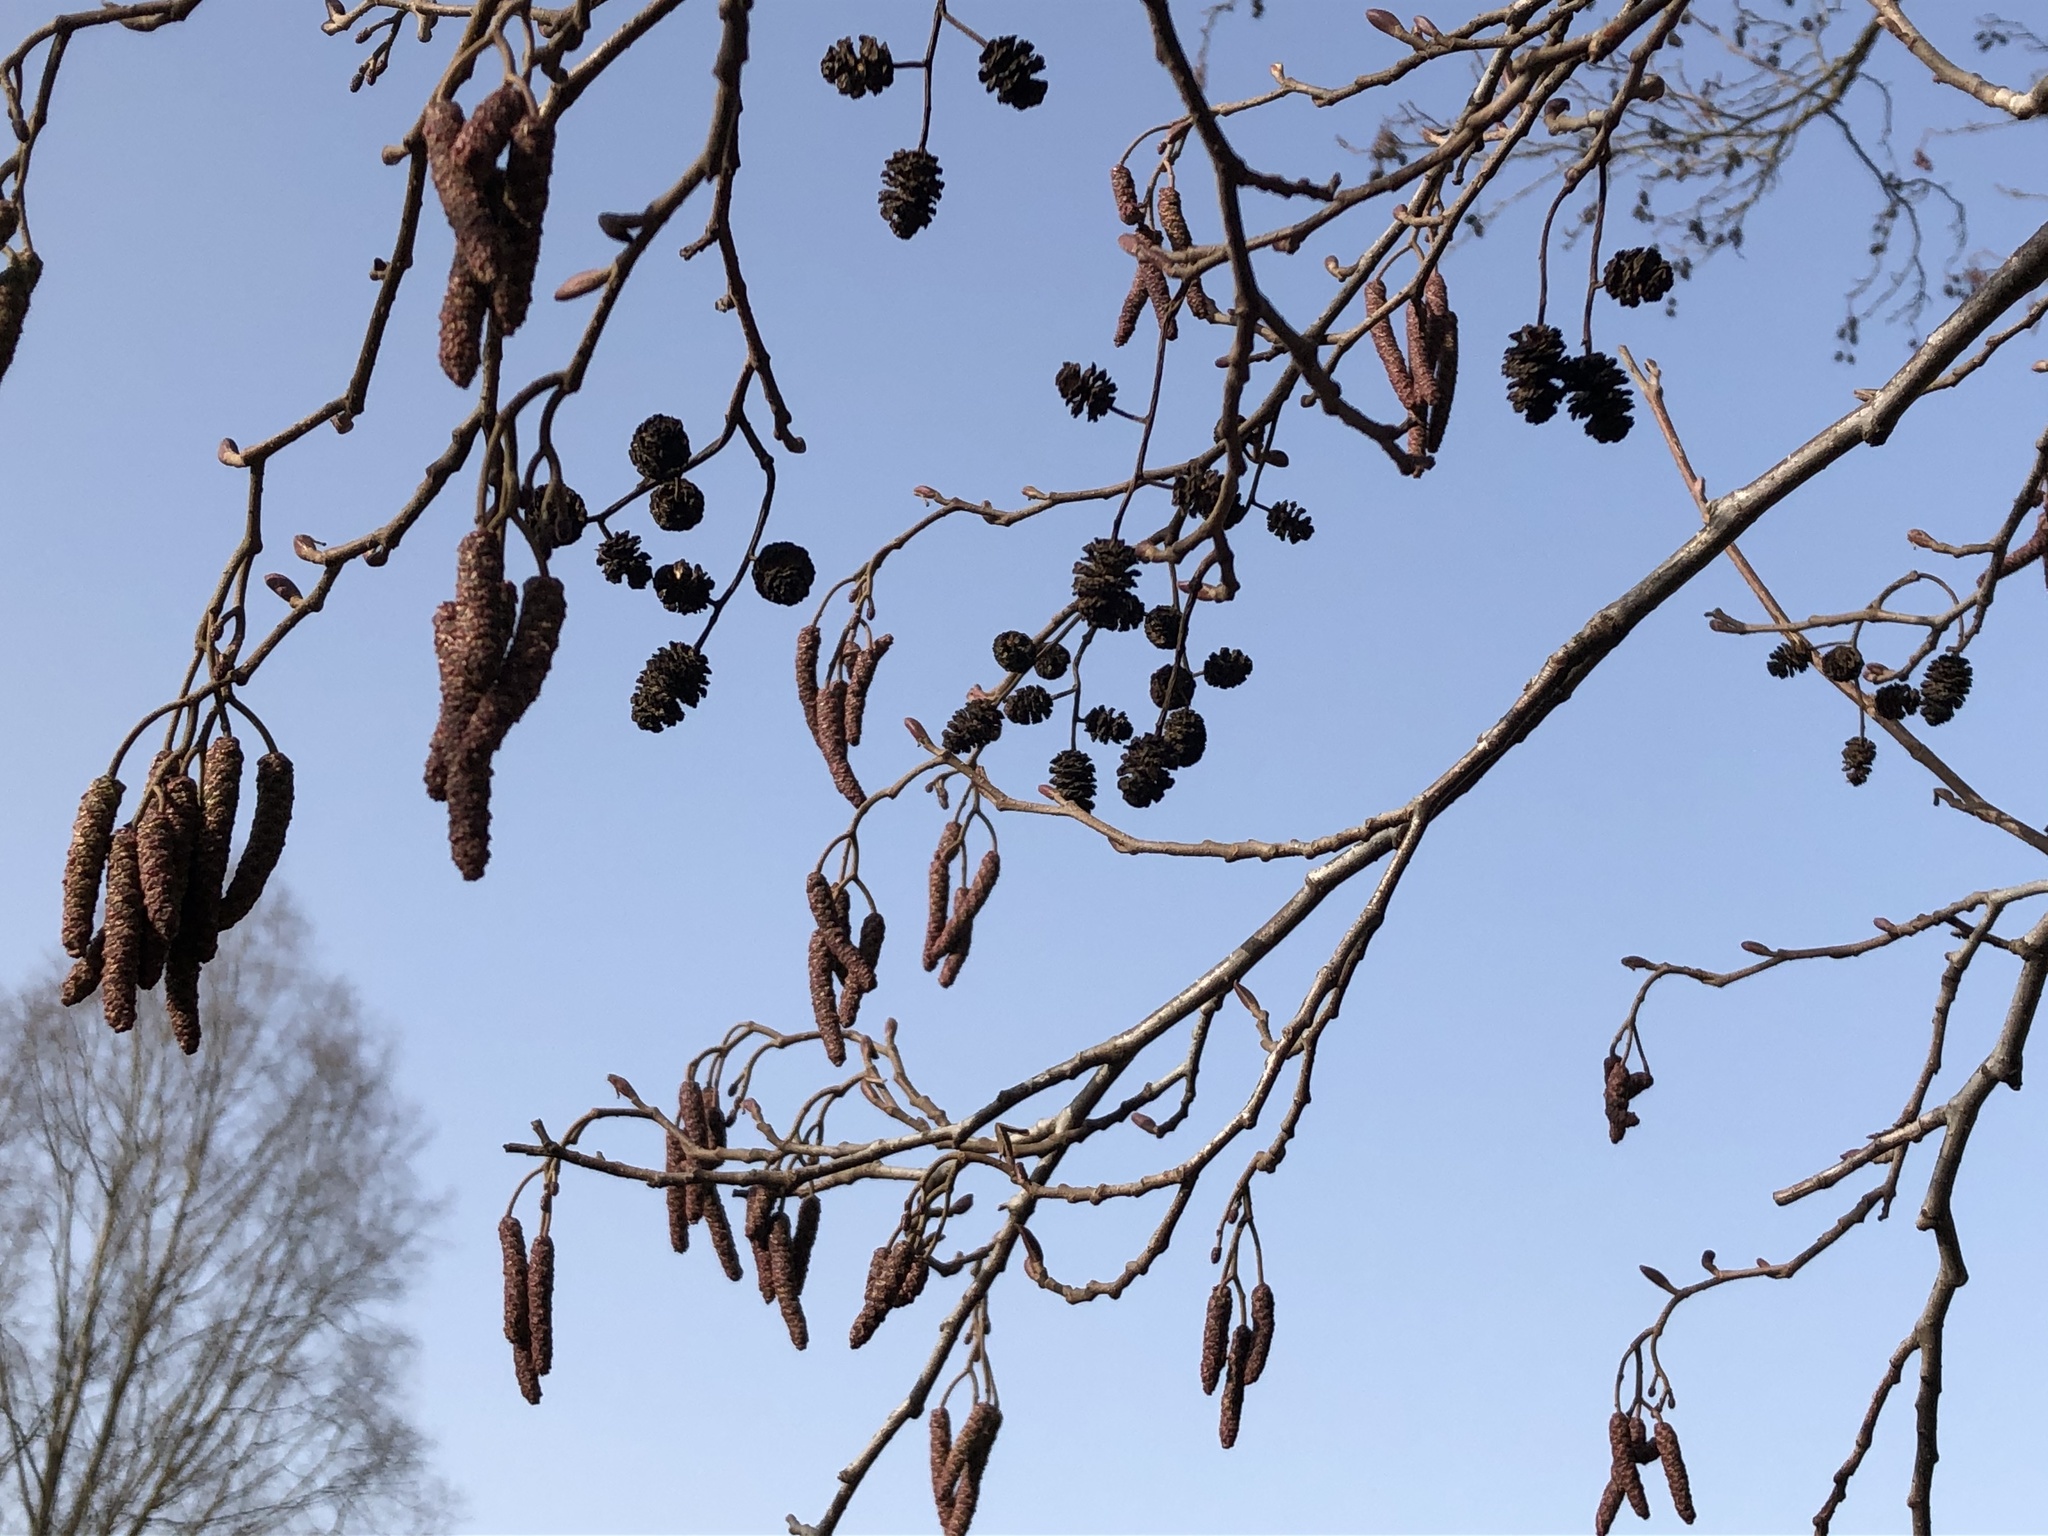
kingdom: Plantae
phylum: Tracheophyta
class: Magnoliopsida
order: Fagales
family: Betulaceae
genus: Alnus
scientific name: Alnus glutinosa
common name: Black alder
